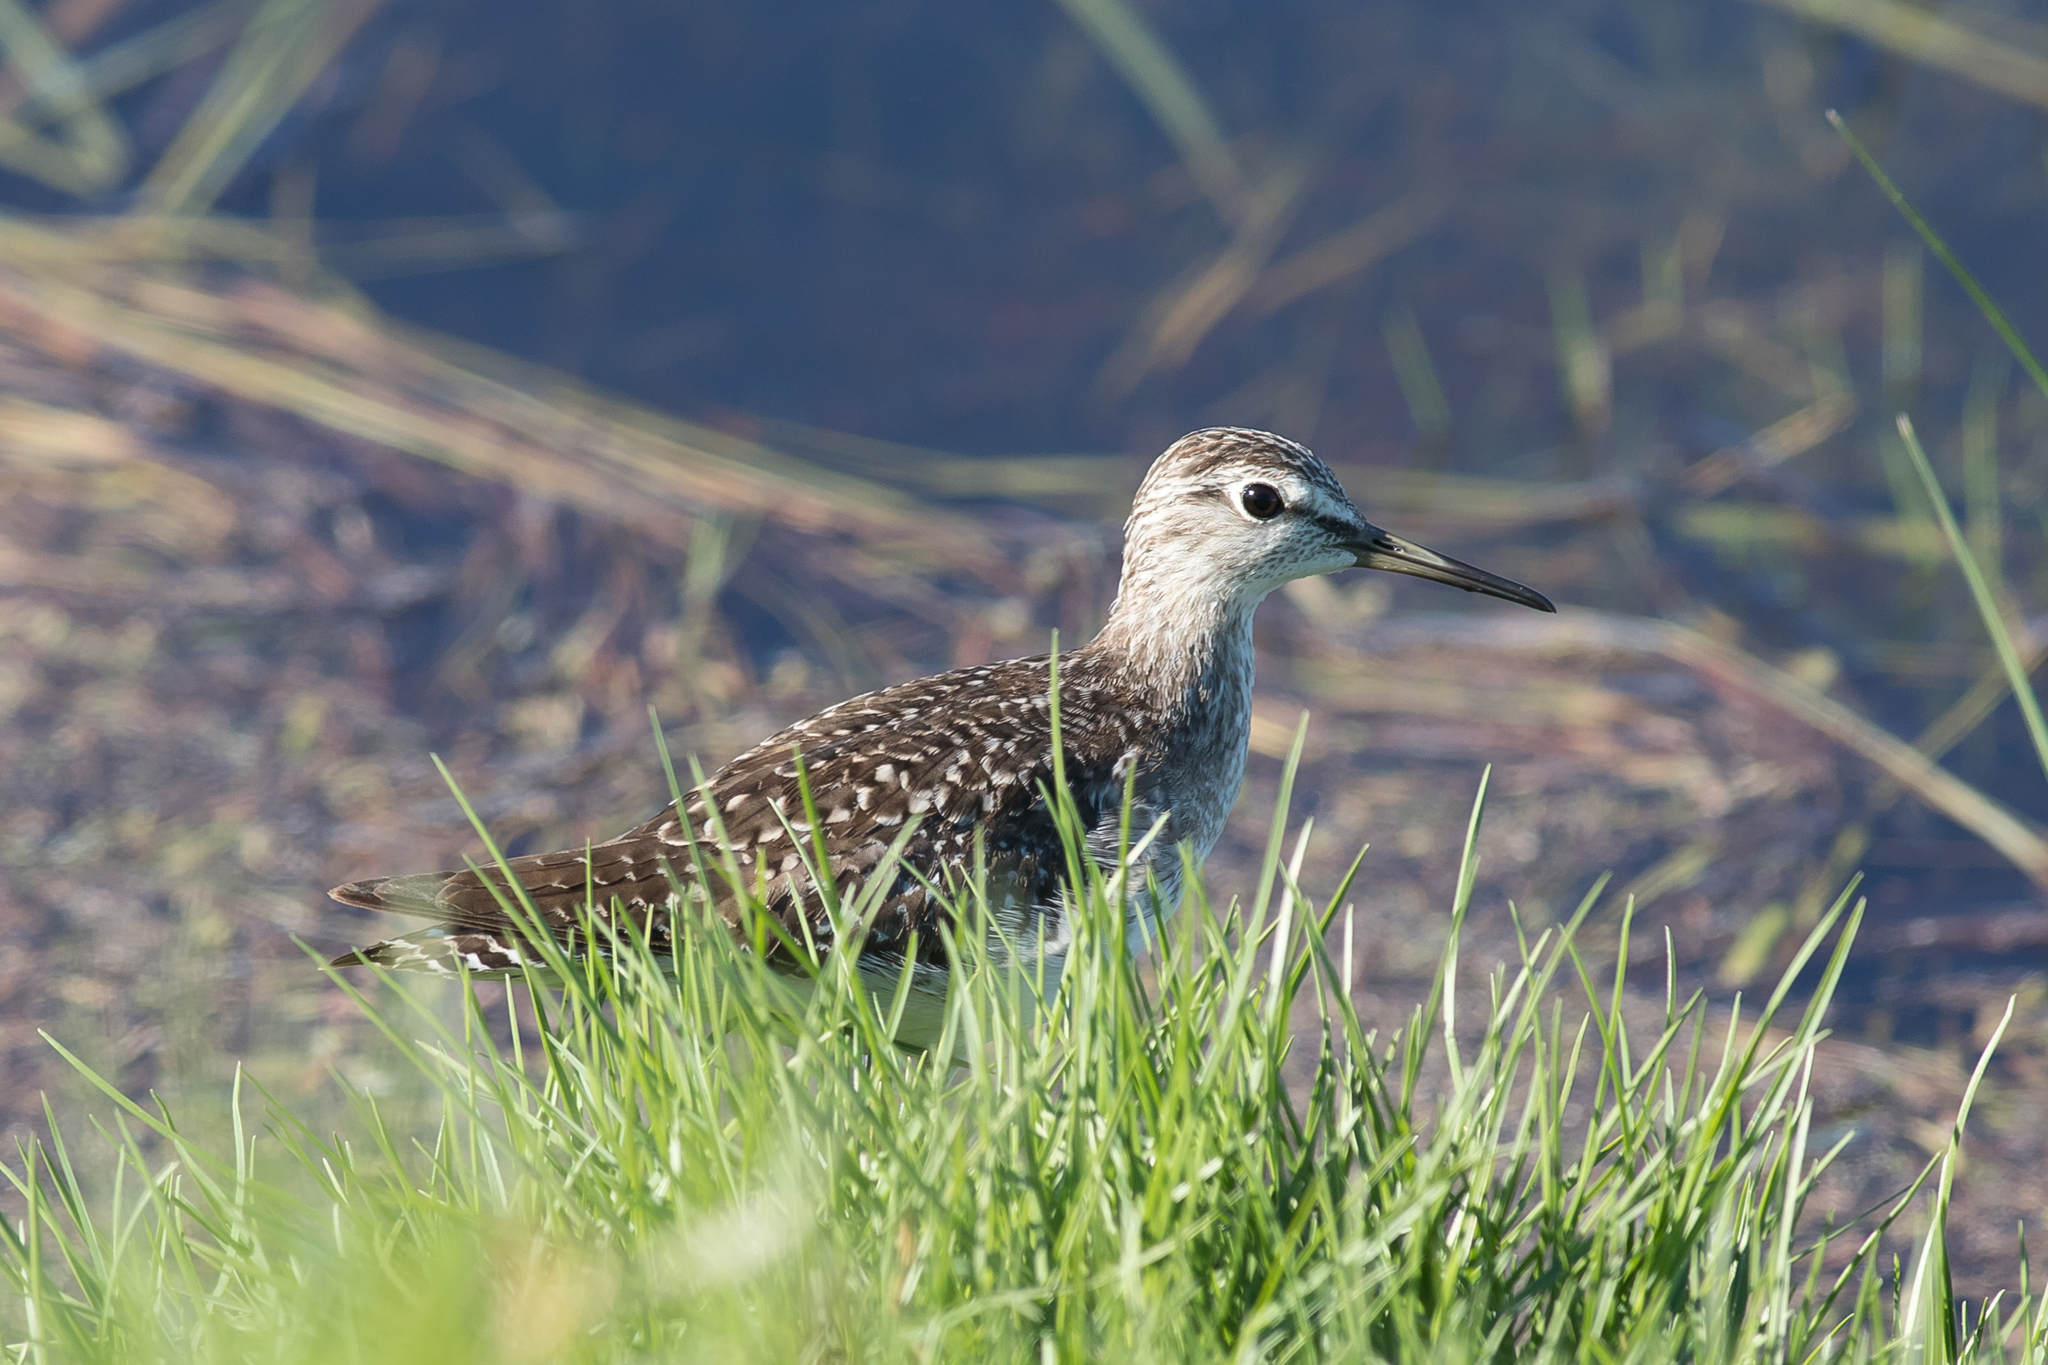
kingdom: Animalia
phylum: Chordata
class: Aves
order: Charadriiformes
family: Scolopacidae
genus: Tringa
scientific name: Tringa glareola
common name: Wood sandpiper
